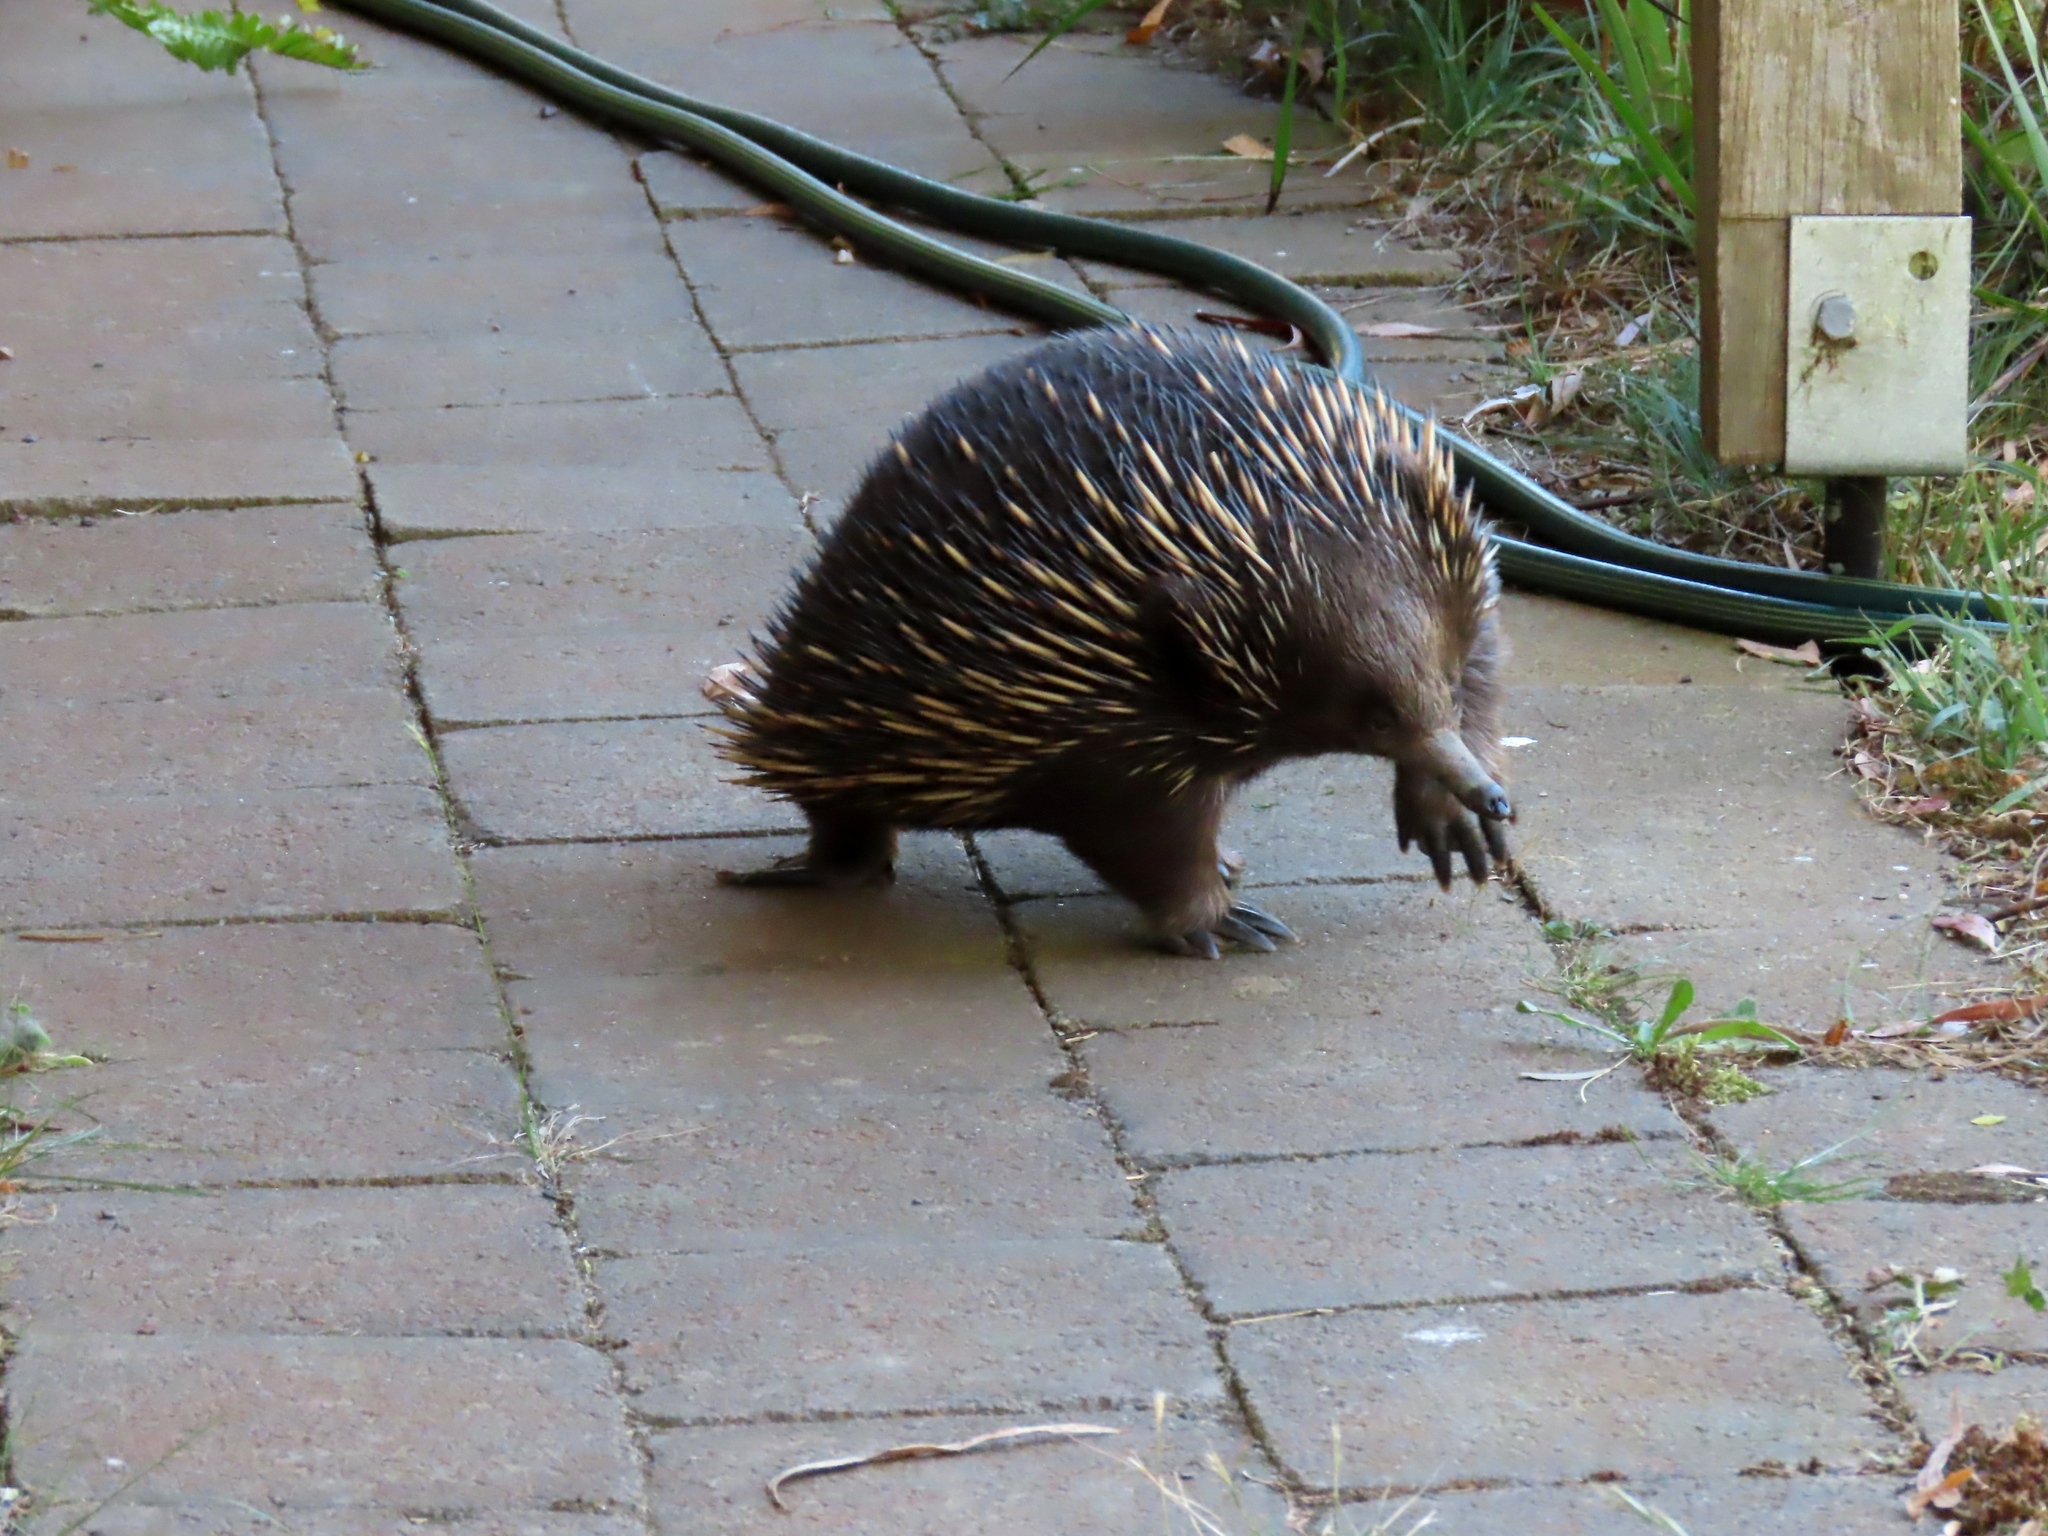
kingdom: Animalia
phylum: Chordata
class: Mammalia
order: Monotremata
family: Tachyglossidae
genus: Tachyglossus
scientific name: Tachyglossus aculeatus
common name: Short-beaked echidna
